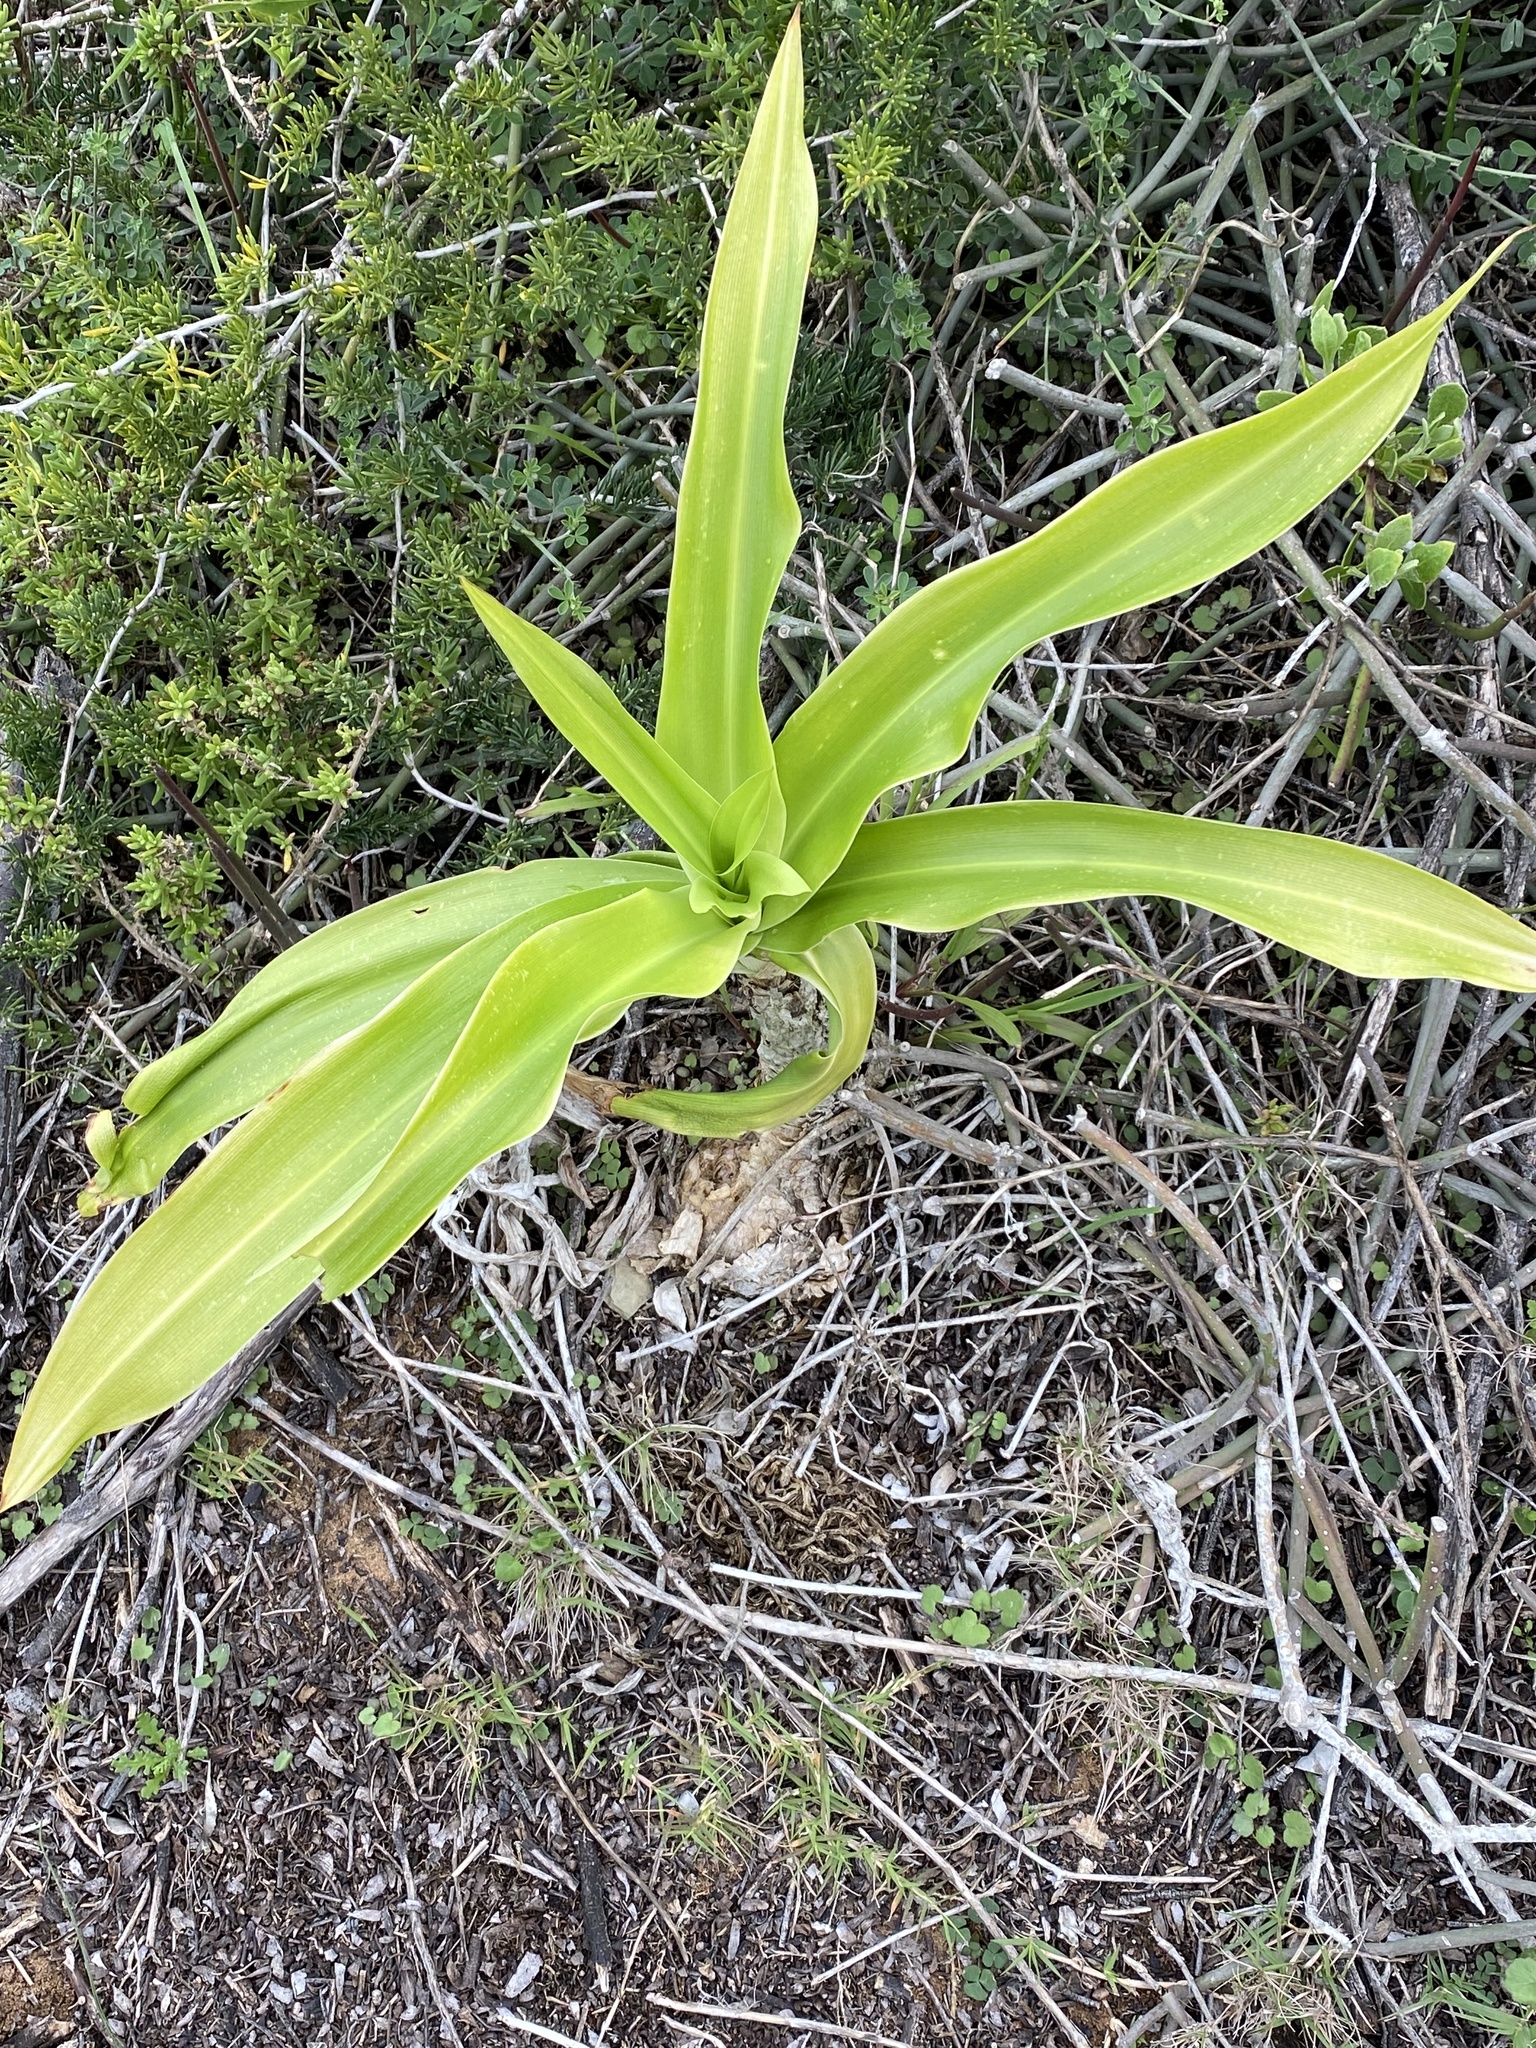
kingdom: Plantae
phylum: Tracheophyta
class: Liliopsida
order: Asparagales
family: Asparagaceae
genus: Drimia
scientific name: Drimia capensis
